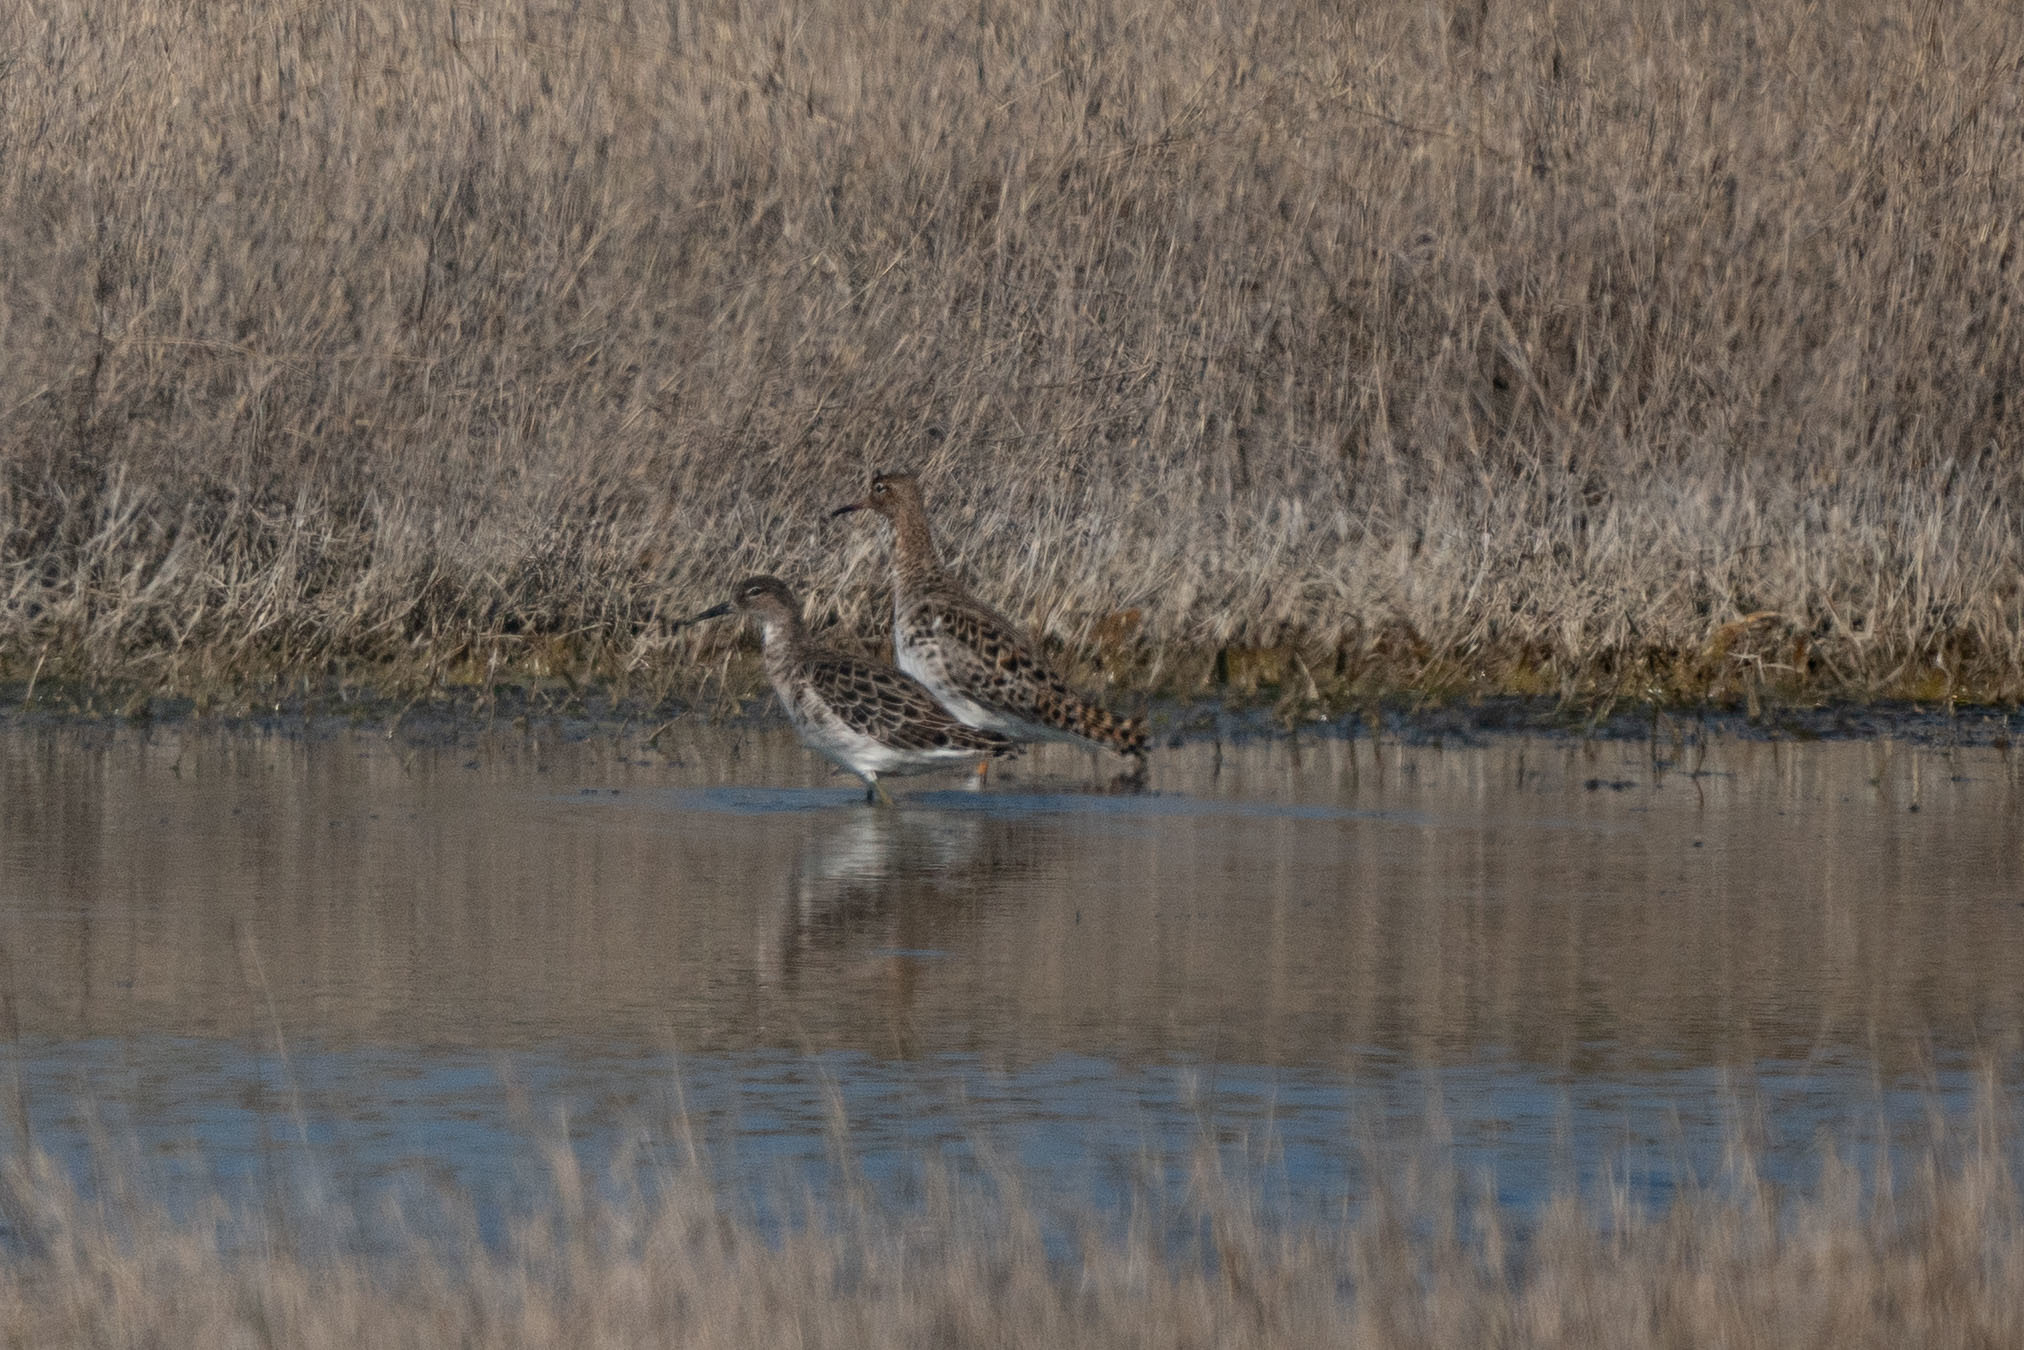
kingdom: Animalia
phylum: Chordata
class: Aves
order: Charadriiformes
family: Scolopacidae
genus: Calidris
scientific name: Calidris pugnax
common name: Ruff
